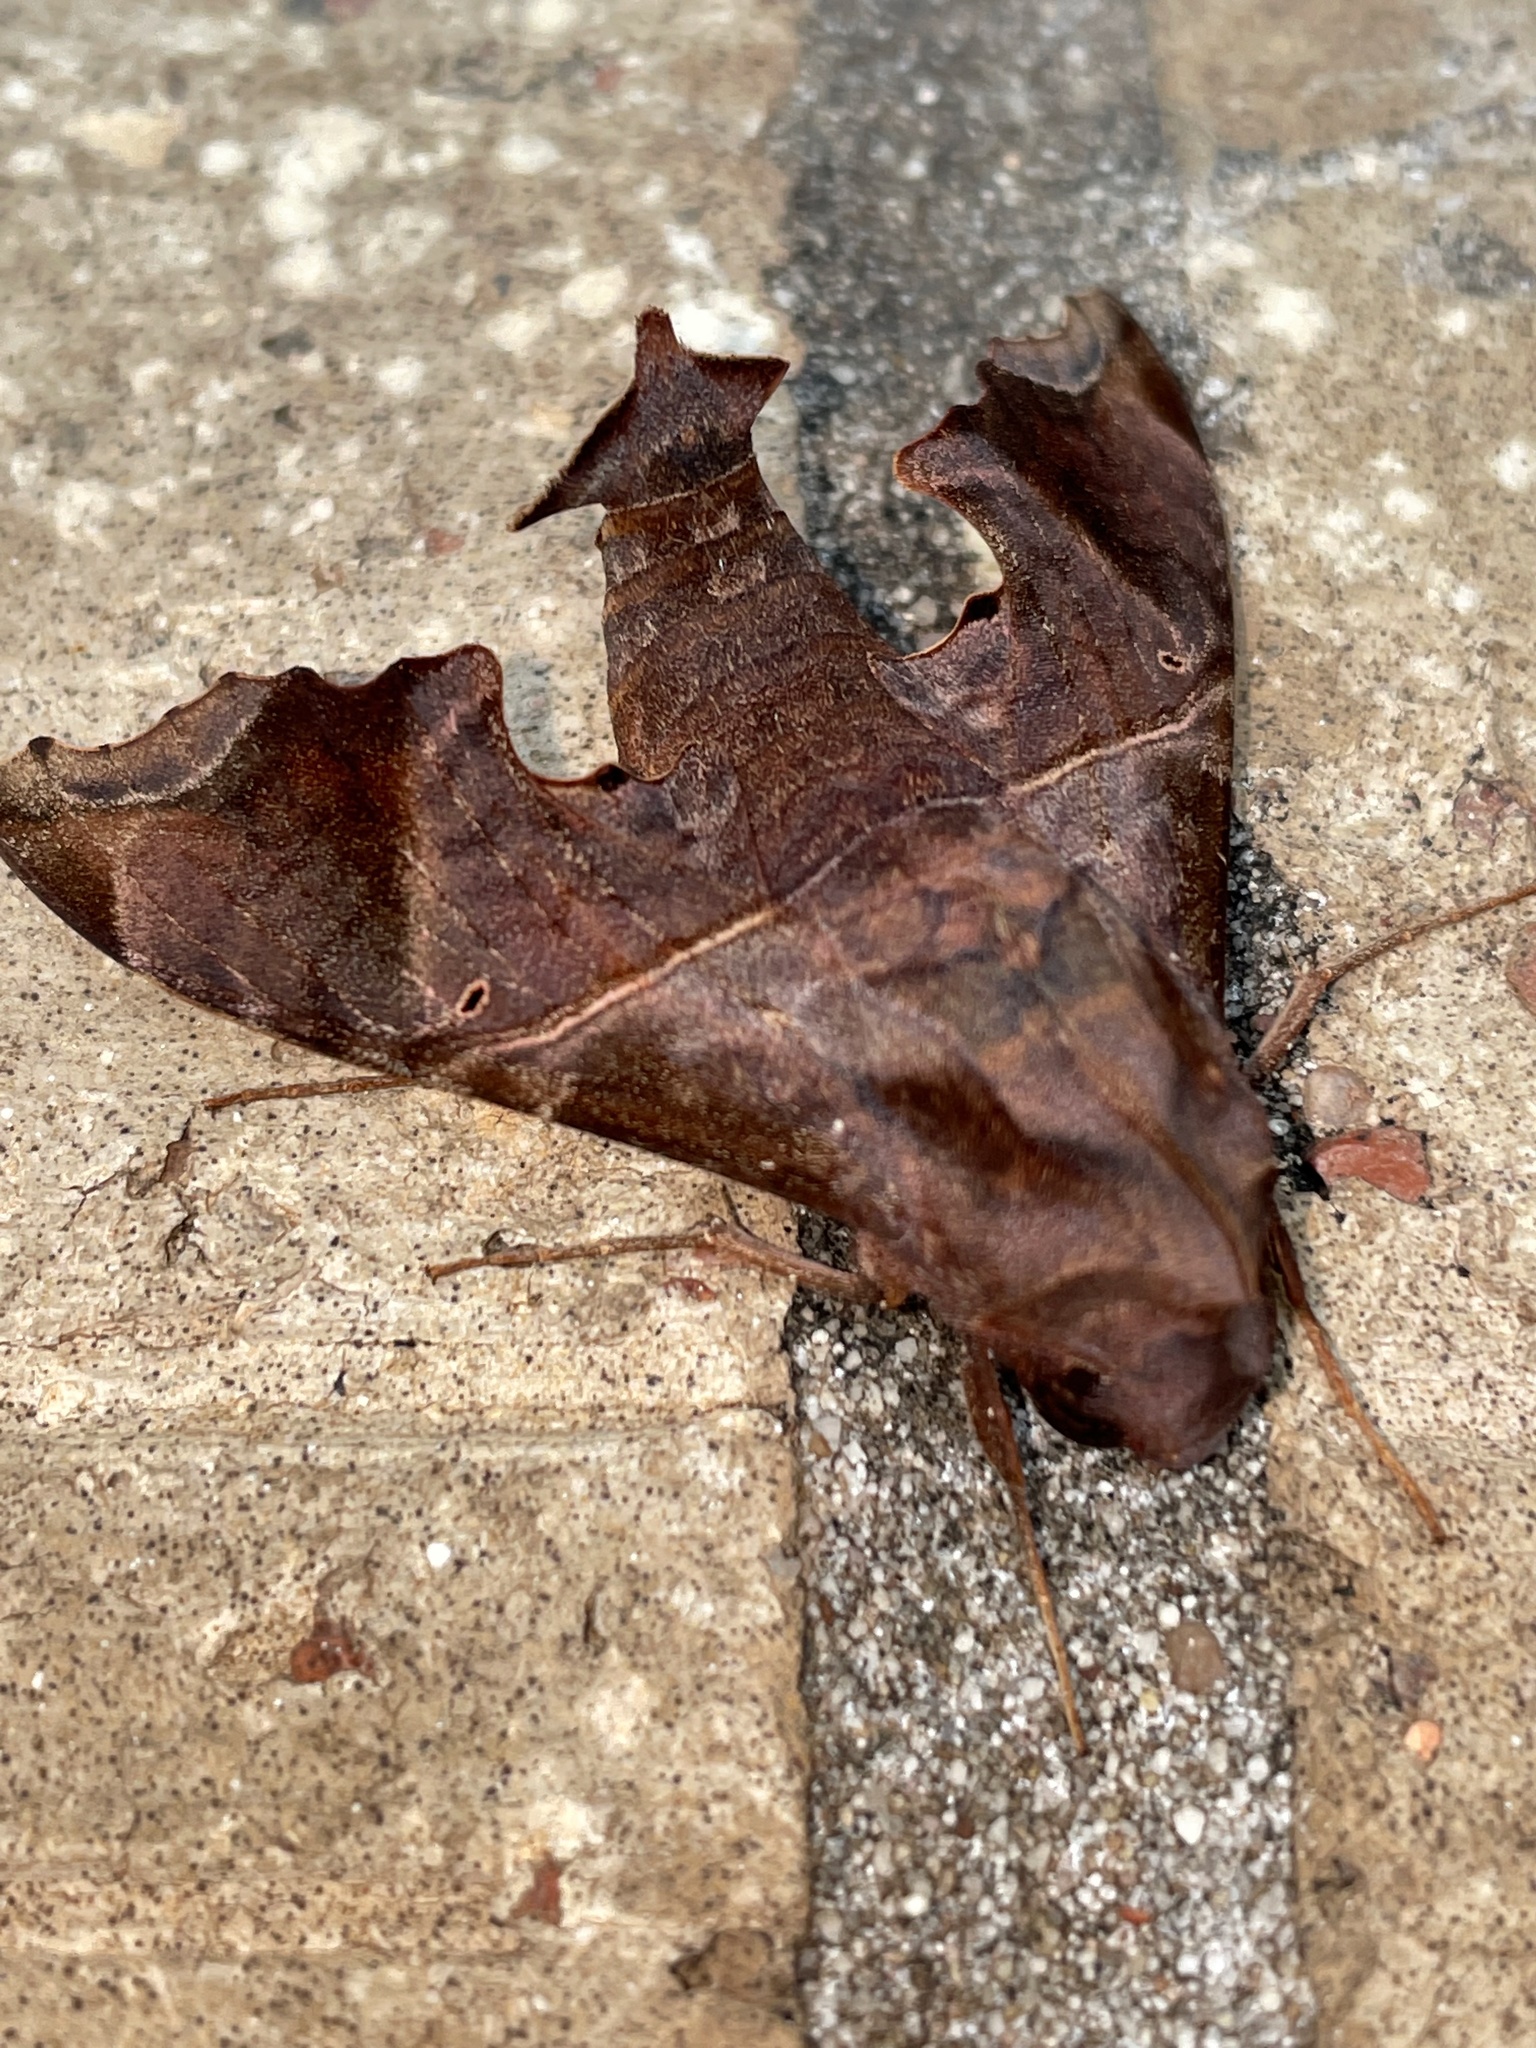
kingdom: Animalia
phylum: Arthropoda
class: Insecta
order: Lepidoptera
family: Sphingidae
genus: Enyo
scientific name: Enyo lugubris
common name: Mournful sphinx
